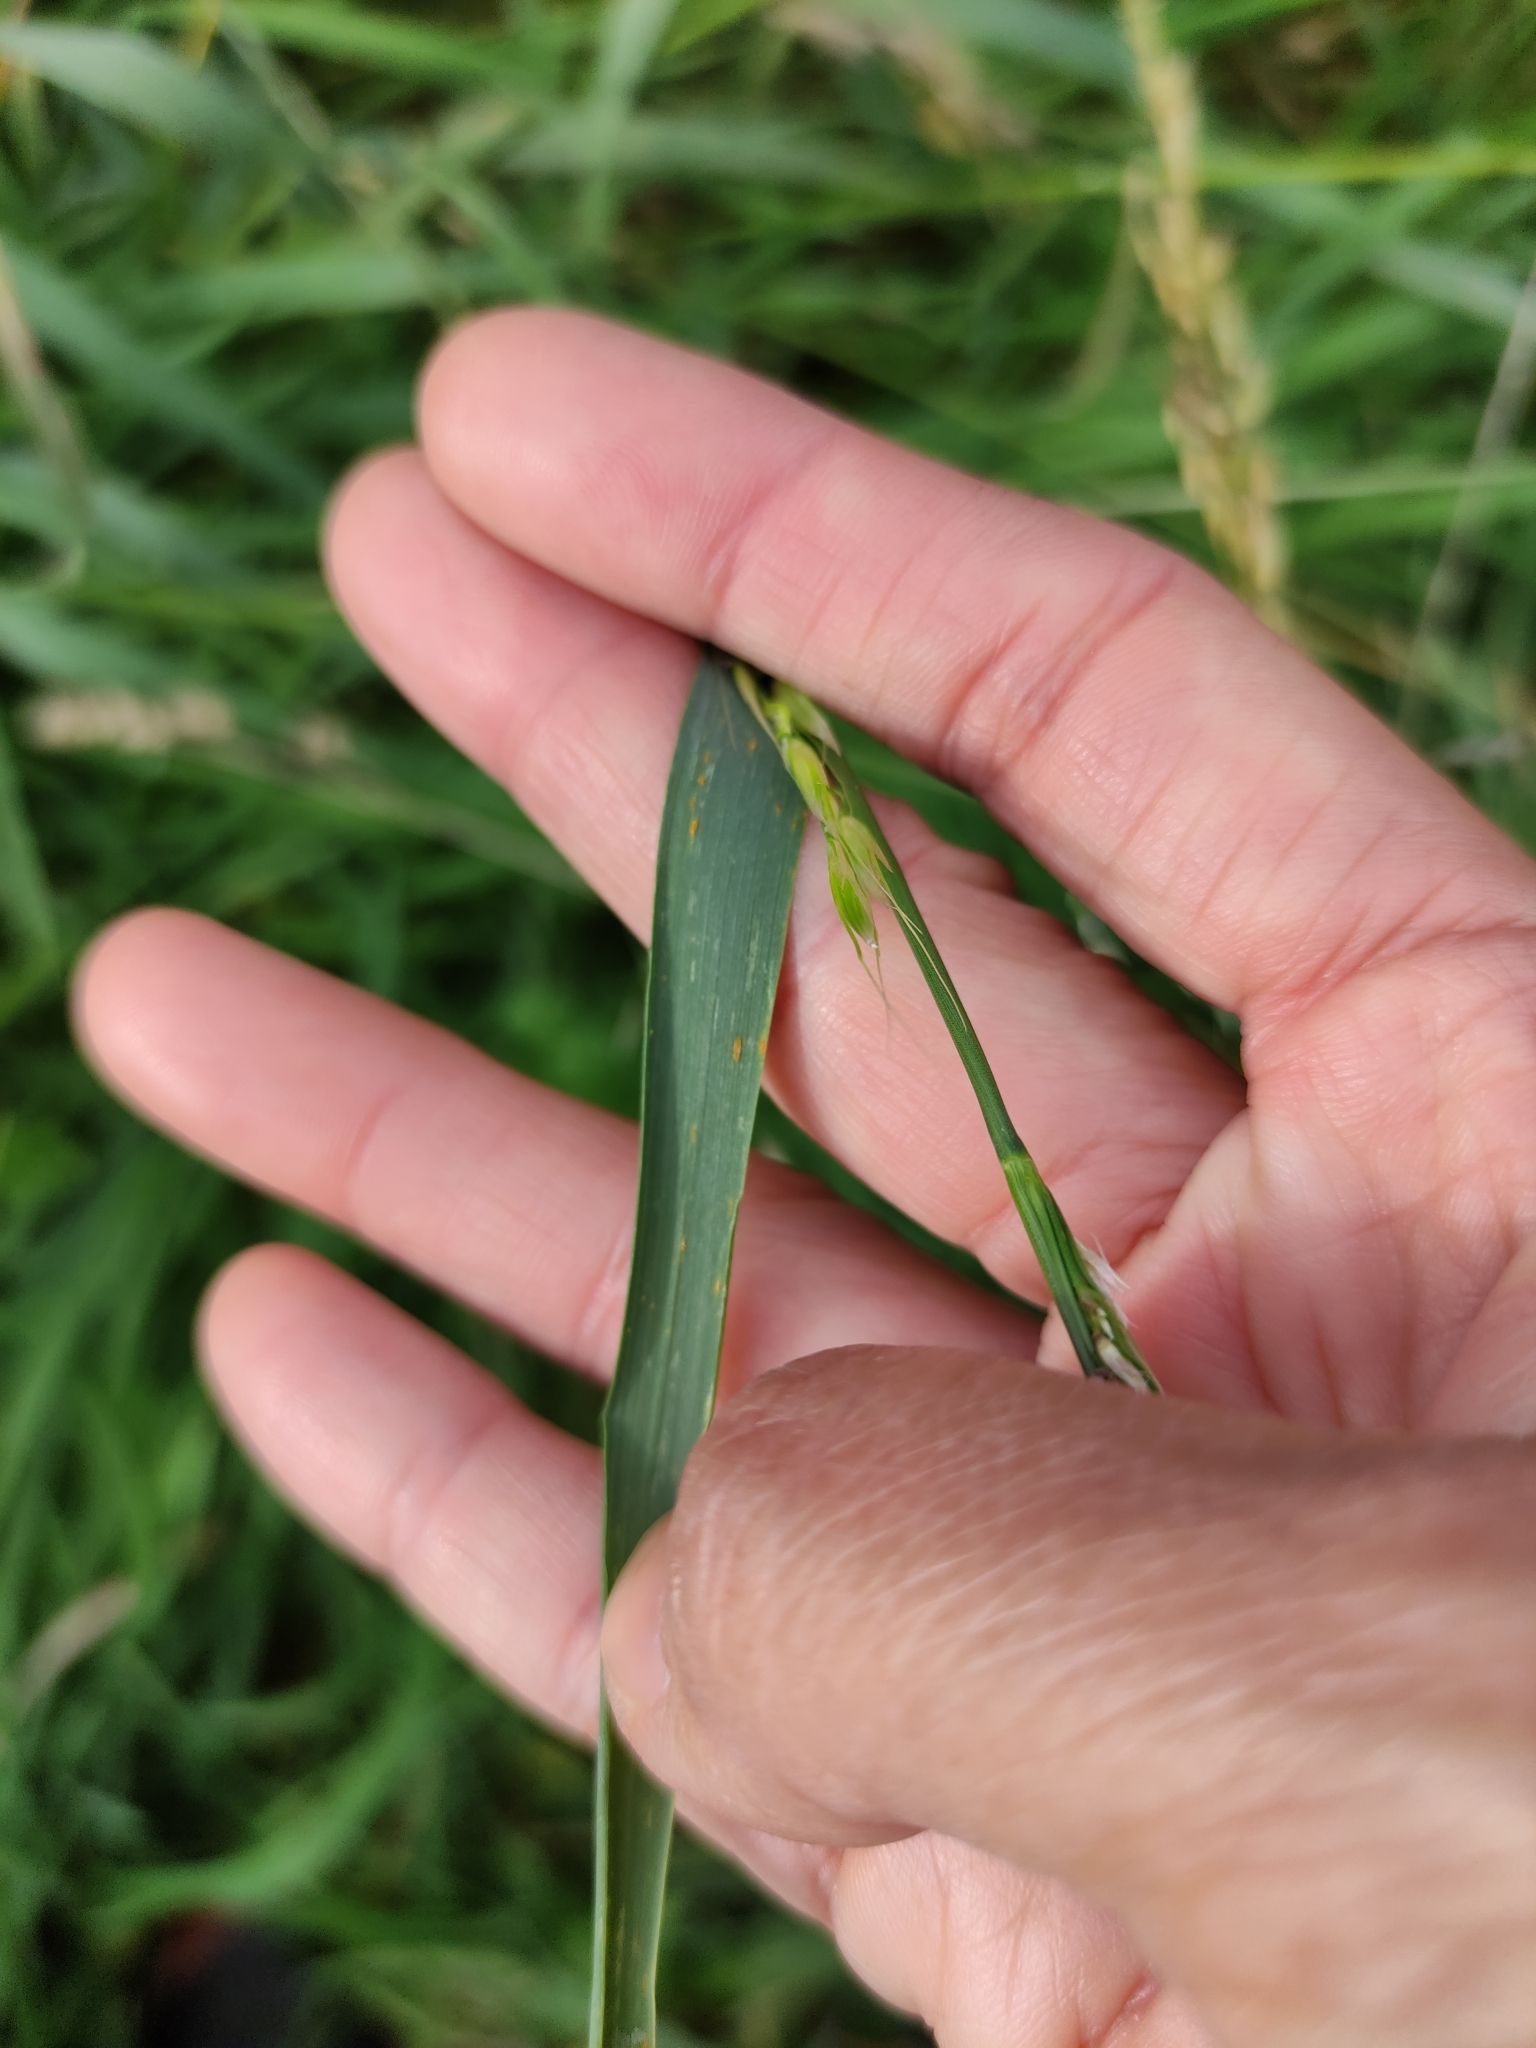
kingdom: Plantae
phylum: Tracheophyta
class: Liliopsida
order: Poales
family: Poaceae
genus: Arrhenatherum
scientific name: Arrhenatherum elatius
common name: Tall oatgrass
